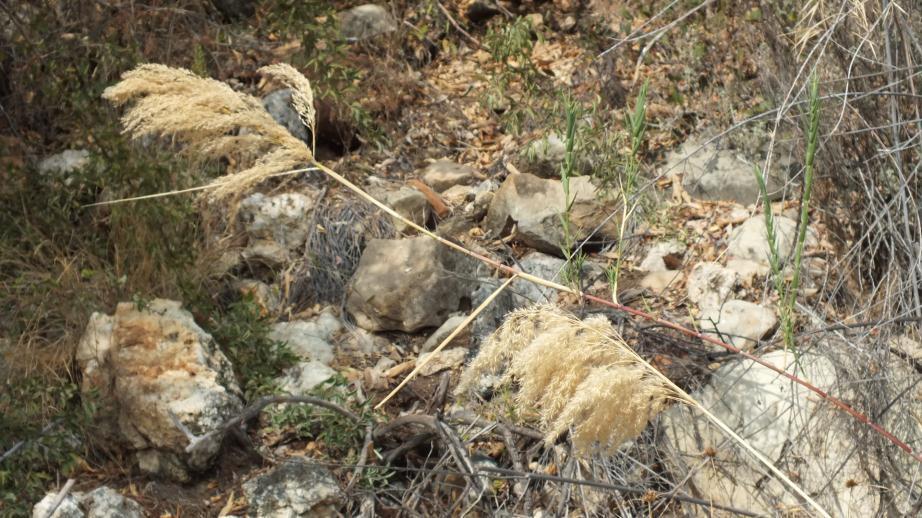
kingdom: Plantae
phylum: Tracheophyta
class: Liliopsida
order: Poales
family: Poaceae
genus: Phragmites
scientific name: Phragmites mauritianus
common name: Reed grass
